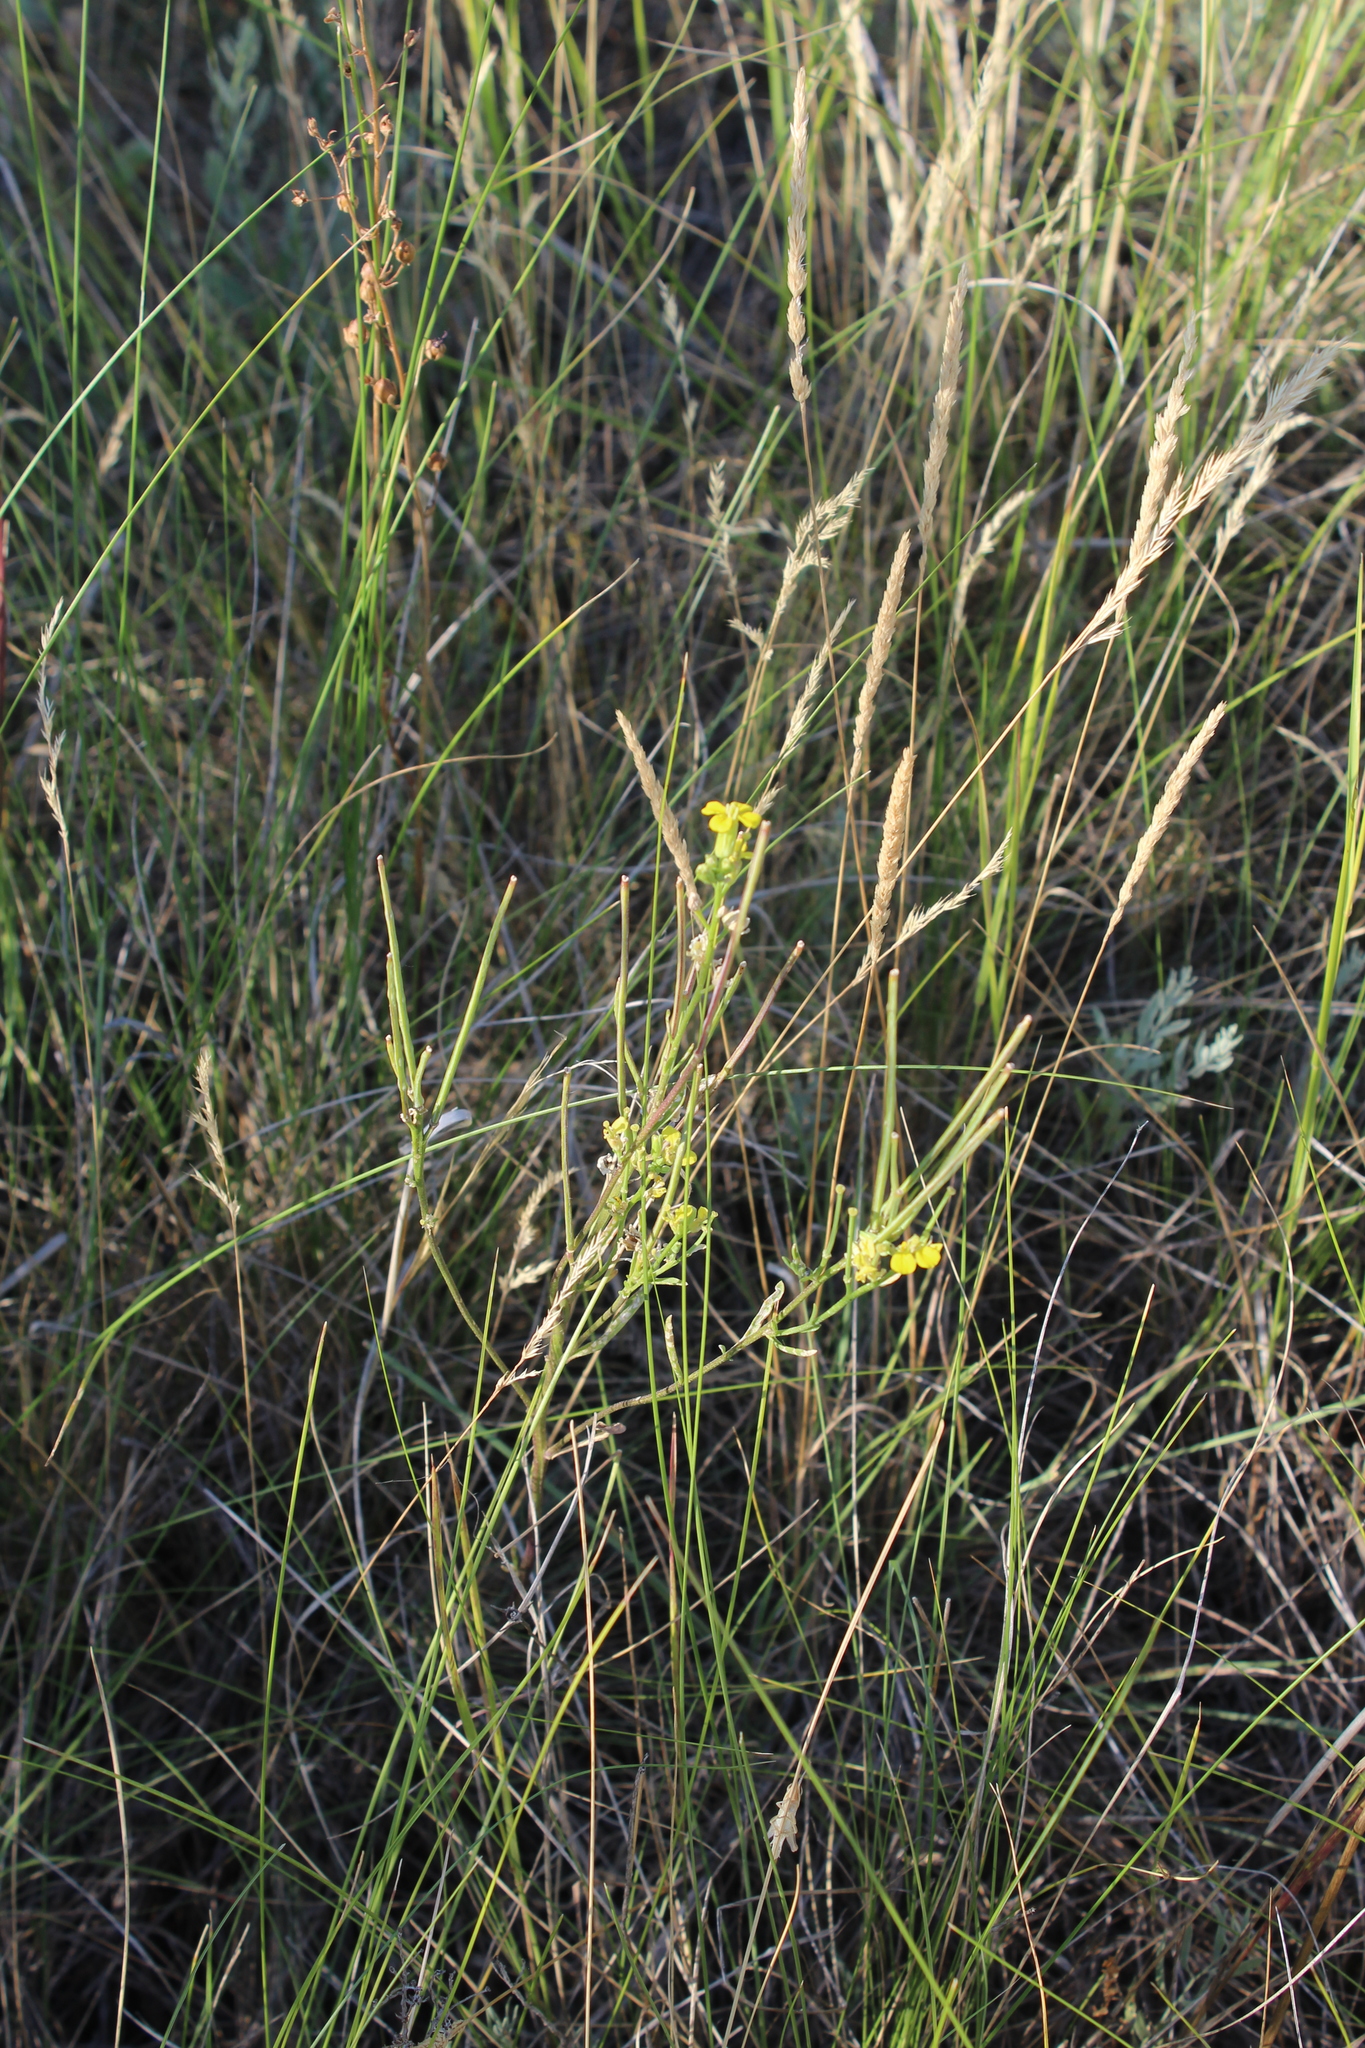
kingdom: Plantae
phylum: Tracheophyta
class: Magnoliopsida
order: Brassicales
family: Brassicaceae
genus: Erysimum
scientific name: Erysimum diffusum
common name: Diffuse wallflower
